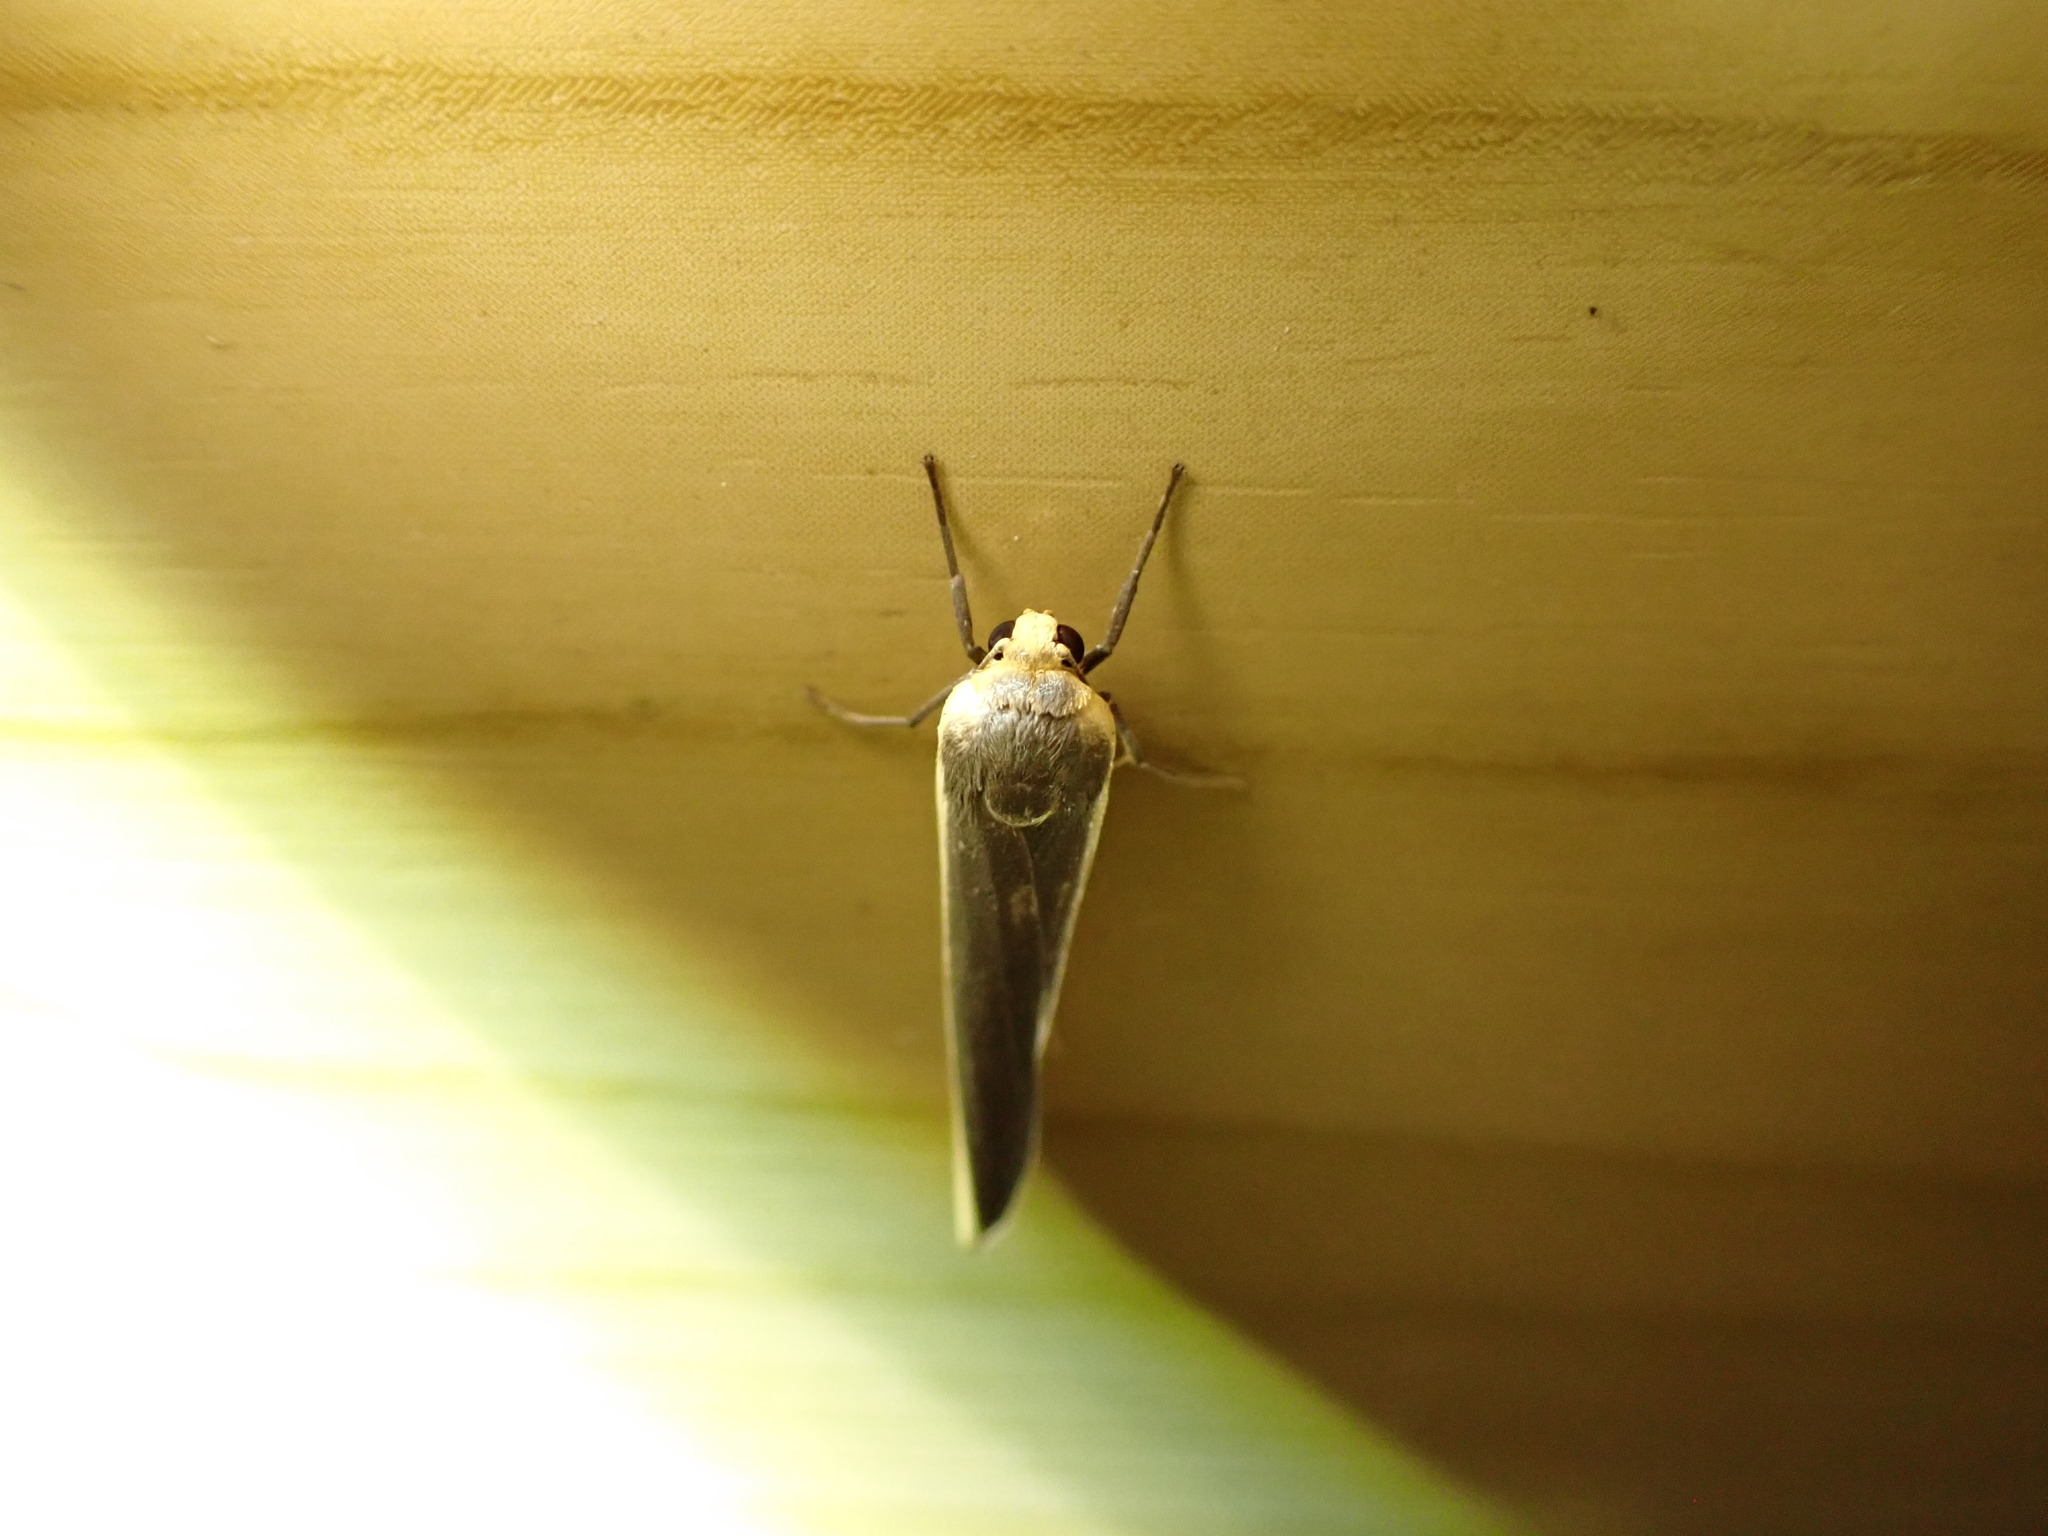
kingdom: Animalia
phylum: Arthropoda
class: Insecta
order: Lepidoptera
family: Erebidae
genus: Hesudra
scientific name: Hesudra divisa
